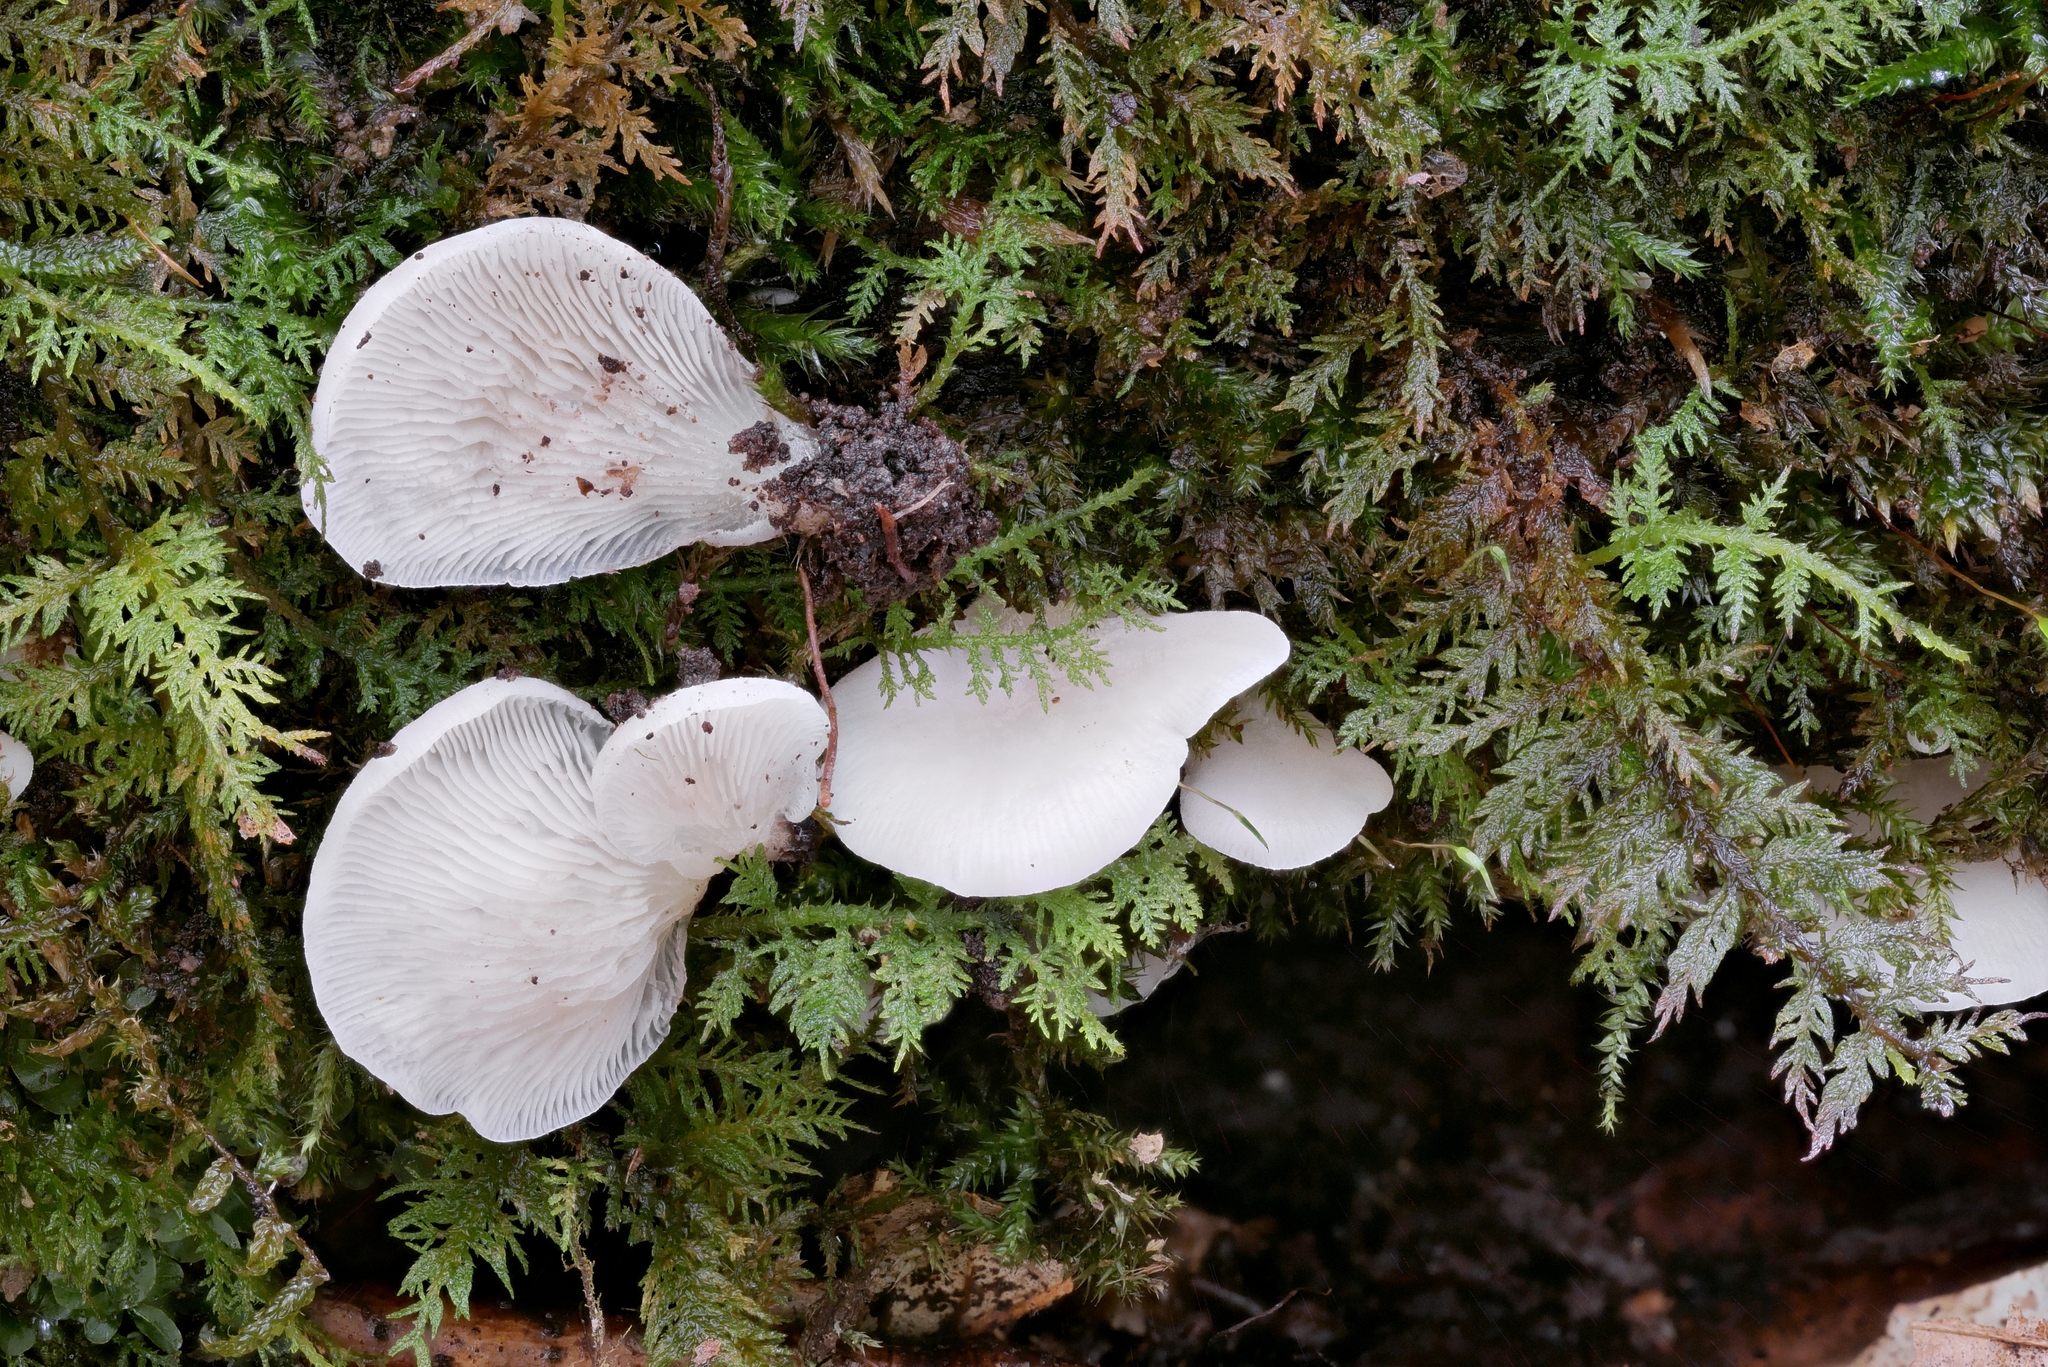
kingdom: Fungi
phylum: Basidiomycota
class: Agaricomycetes
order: Agaricales
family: Crepidotaceae
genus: Crepidotus
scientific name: Crepidotus applanatus
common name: Flat crep
